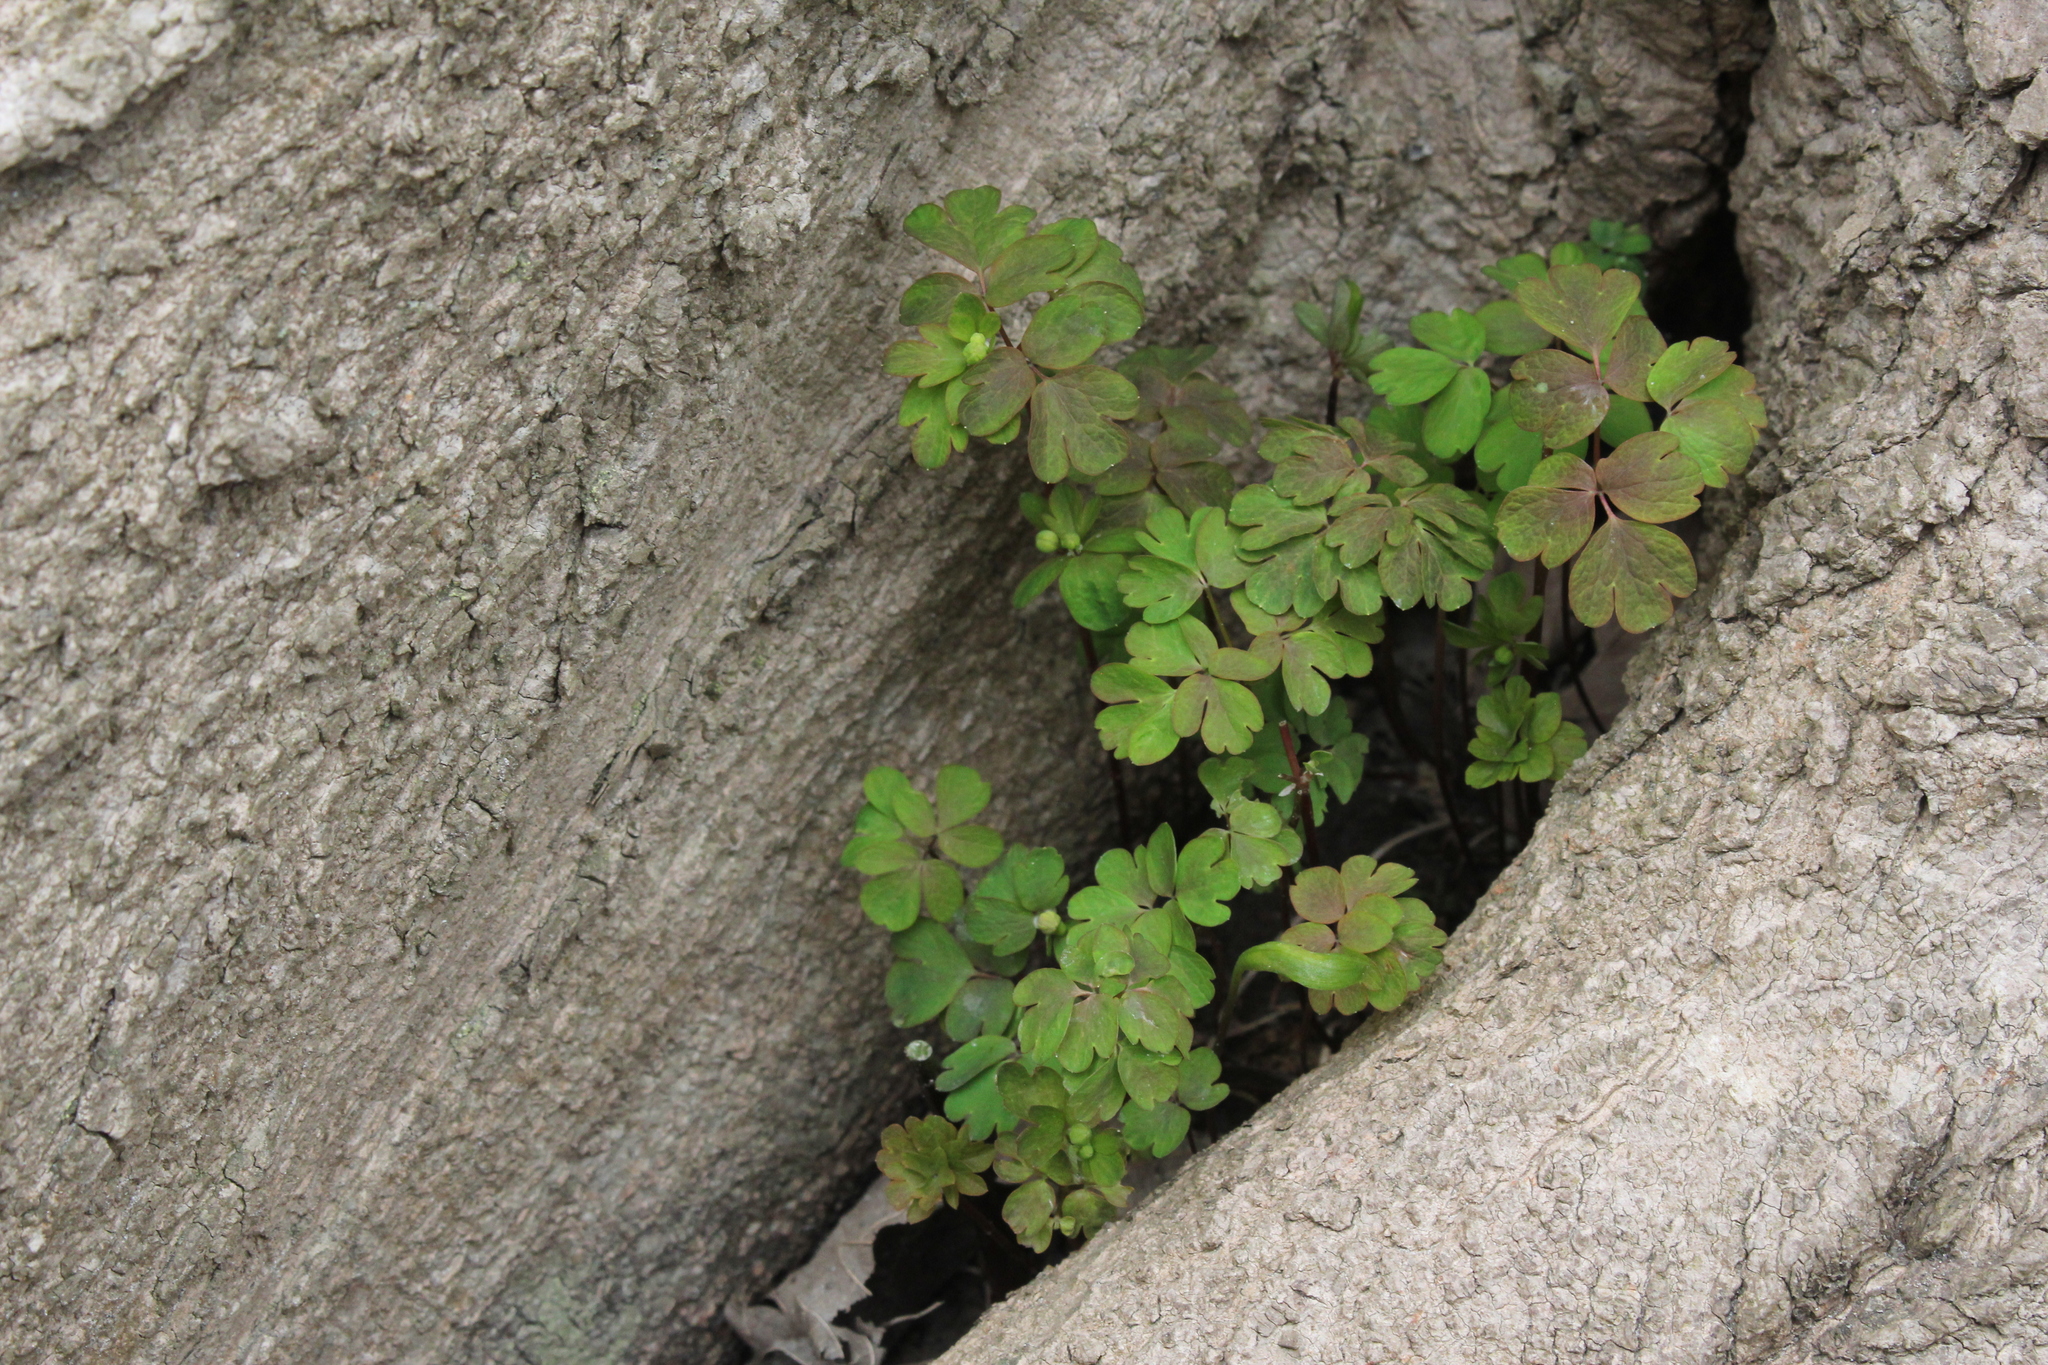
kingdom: Plantae
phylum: Tracheophyta
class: Magnoliopsida
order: Ranunculales
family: Ranunculaceae
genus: Enemion
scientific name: Enemion biternatum
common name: Eastern false rue-anemone
